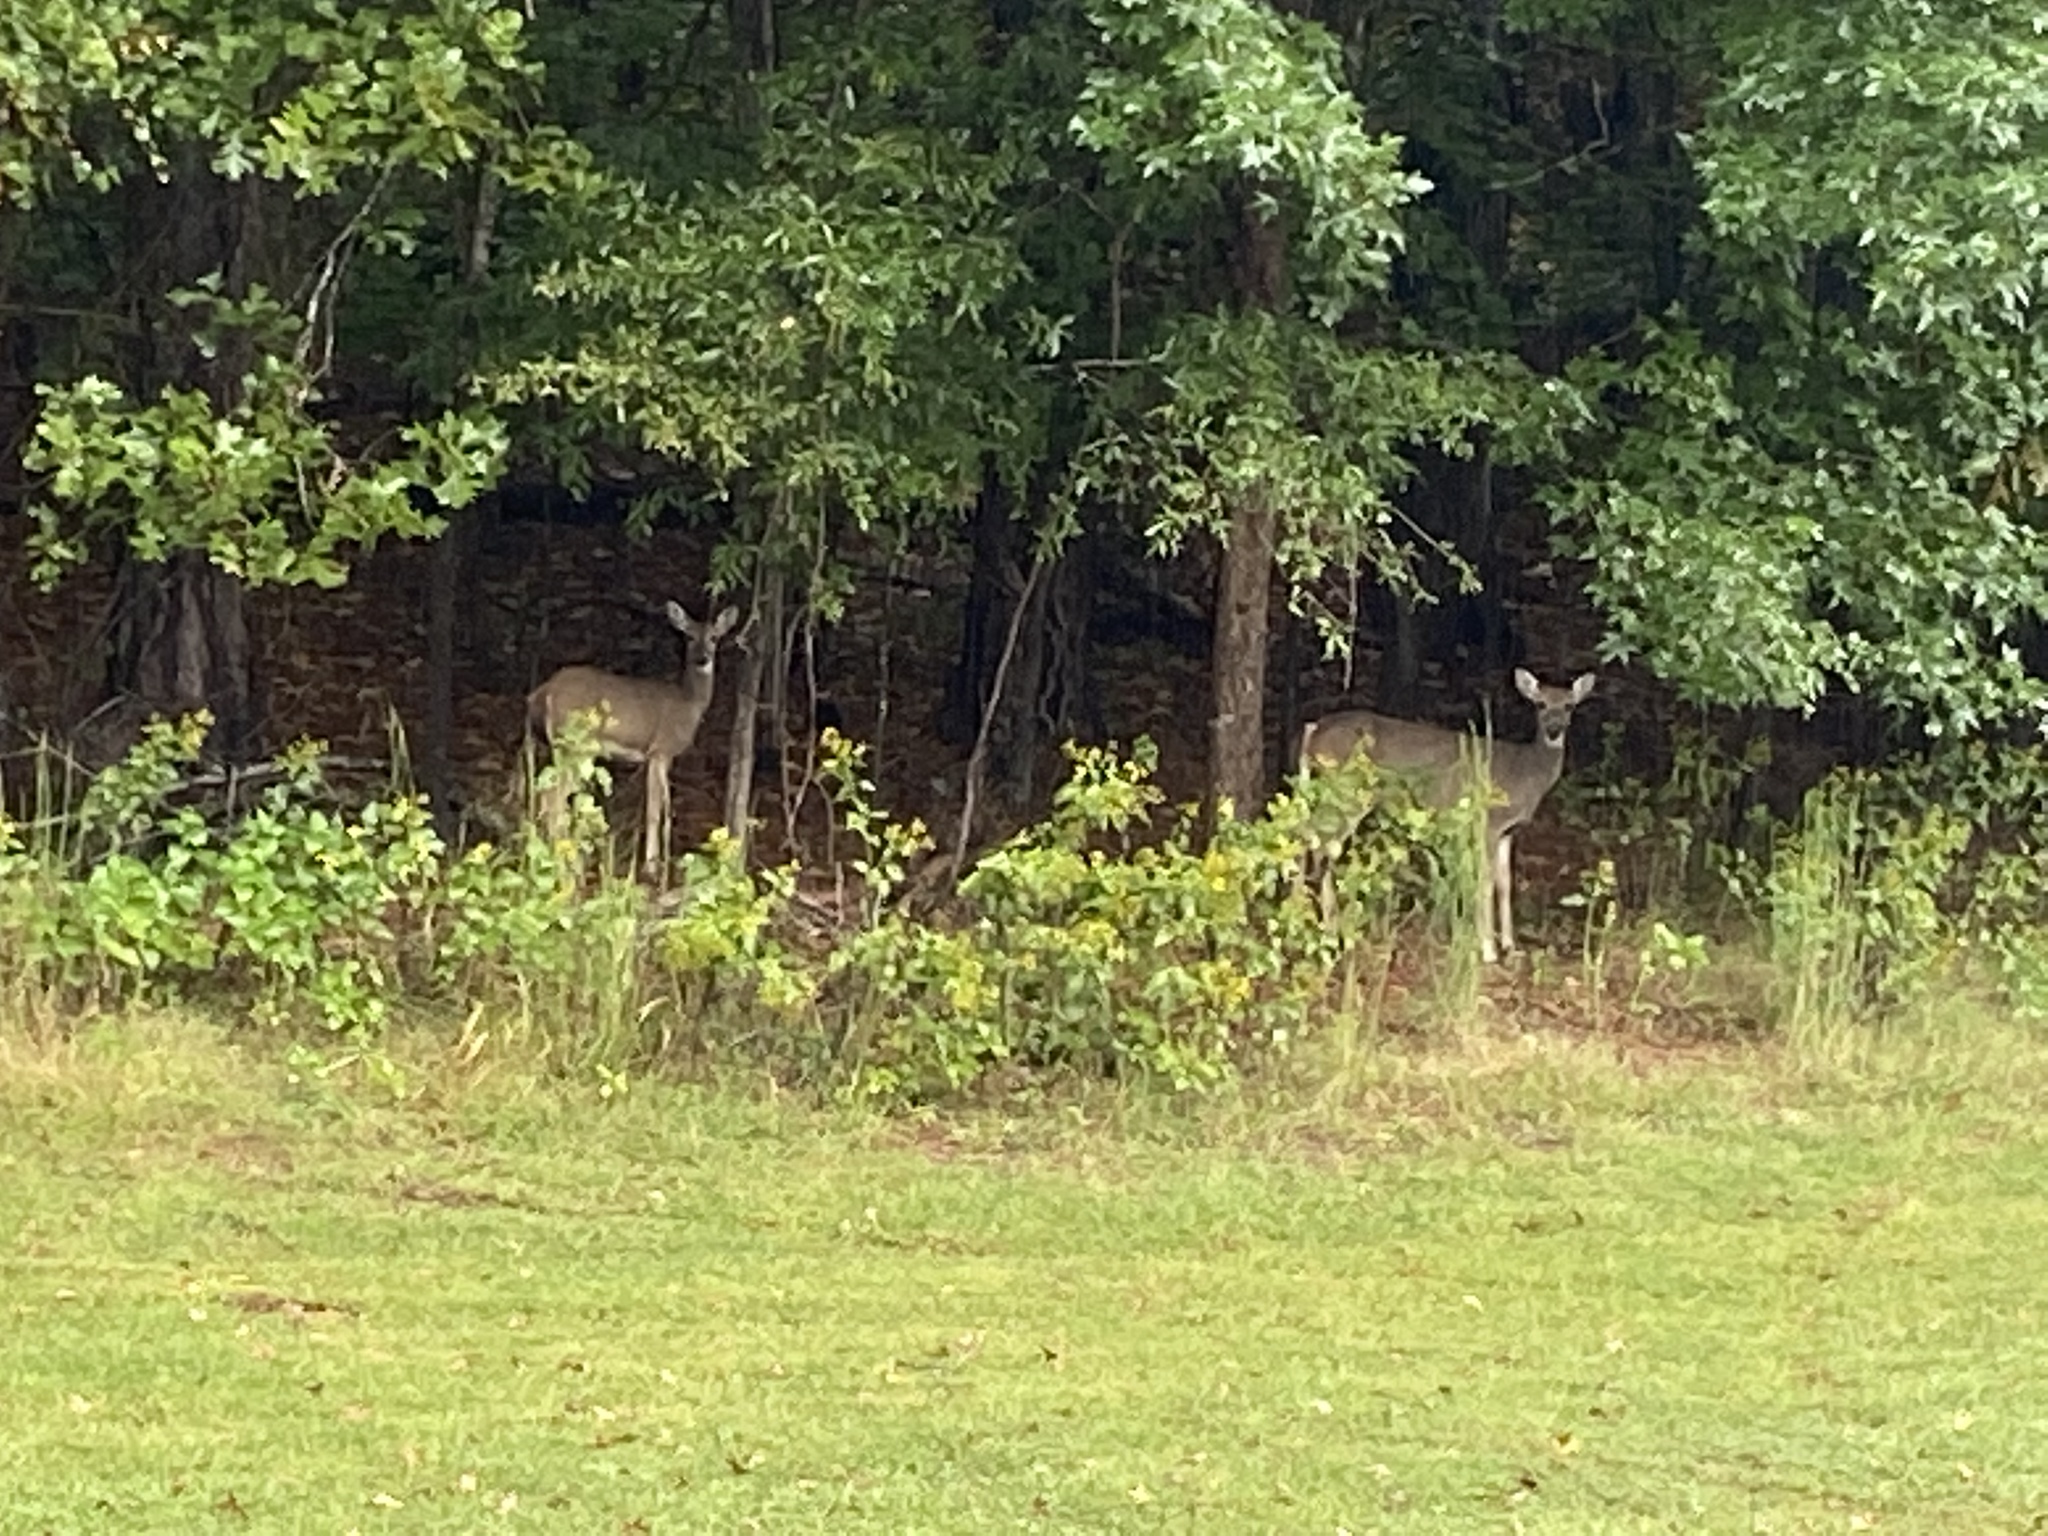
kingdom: Animalia
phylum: Chordata
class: Mammalia
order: Artiodactyla
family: Cervidae
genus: Odocoileus
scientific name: Odocoileus virginianus
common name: White-tailed deer
